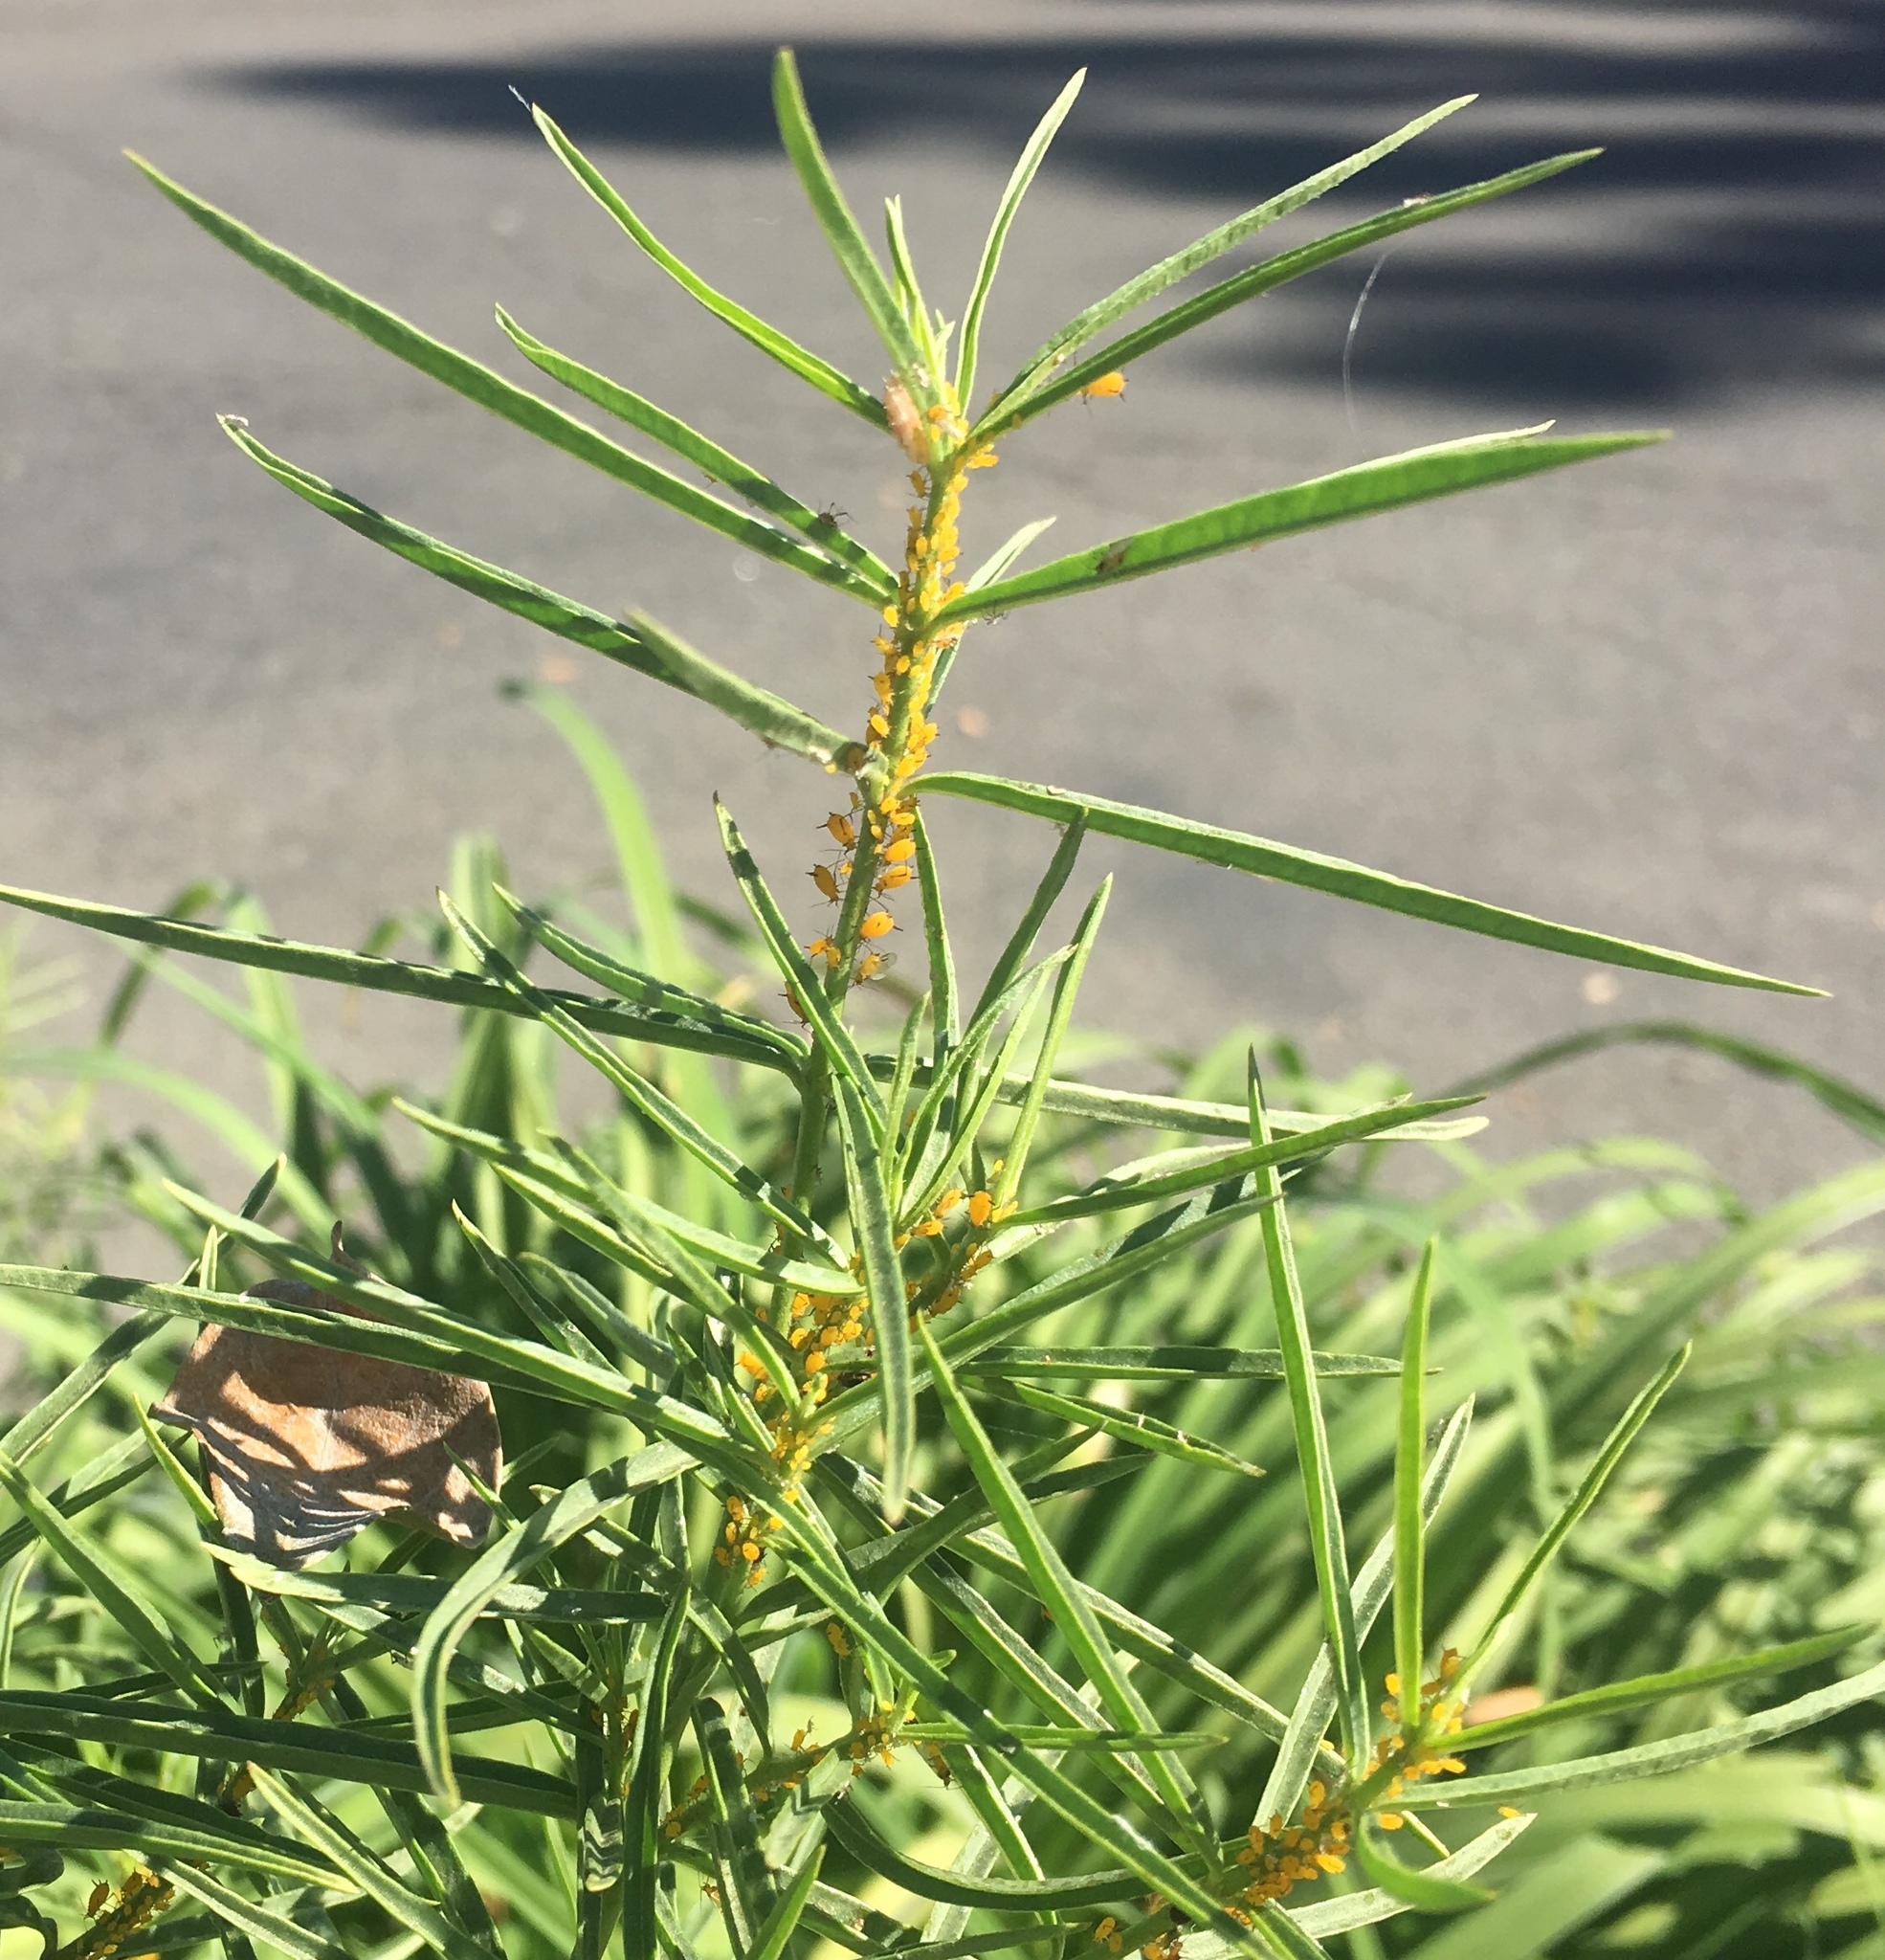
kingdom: Animalia
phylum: Arthropoda
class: Insecta
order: Hemiptera
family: Aphididae
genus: Aphis
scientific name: Aphis nerii
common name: Oleander aphid
